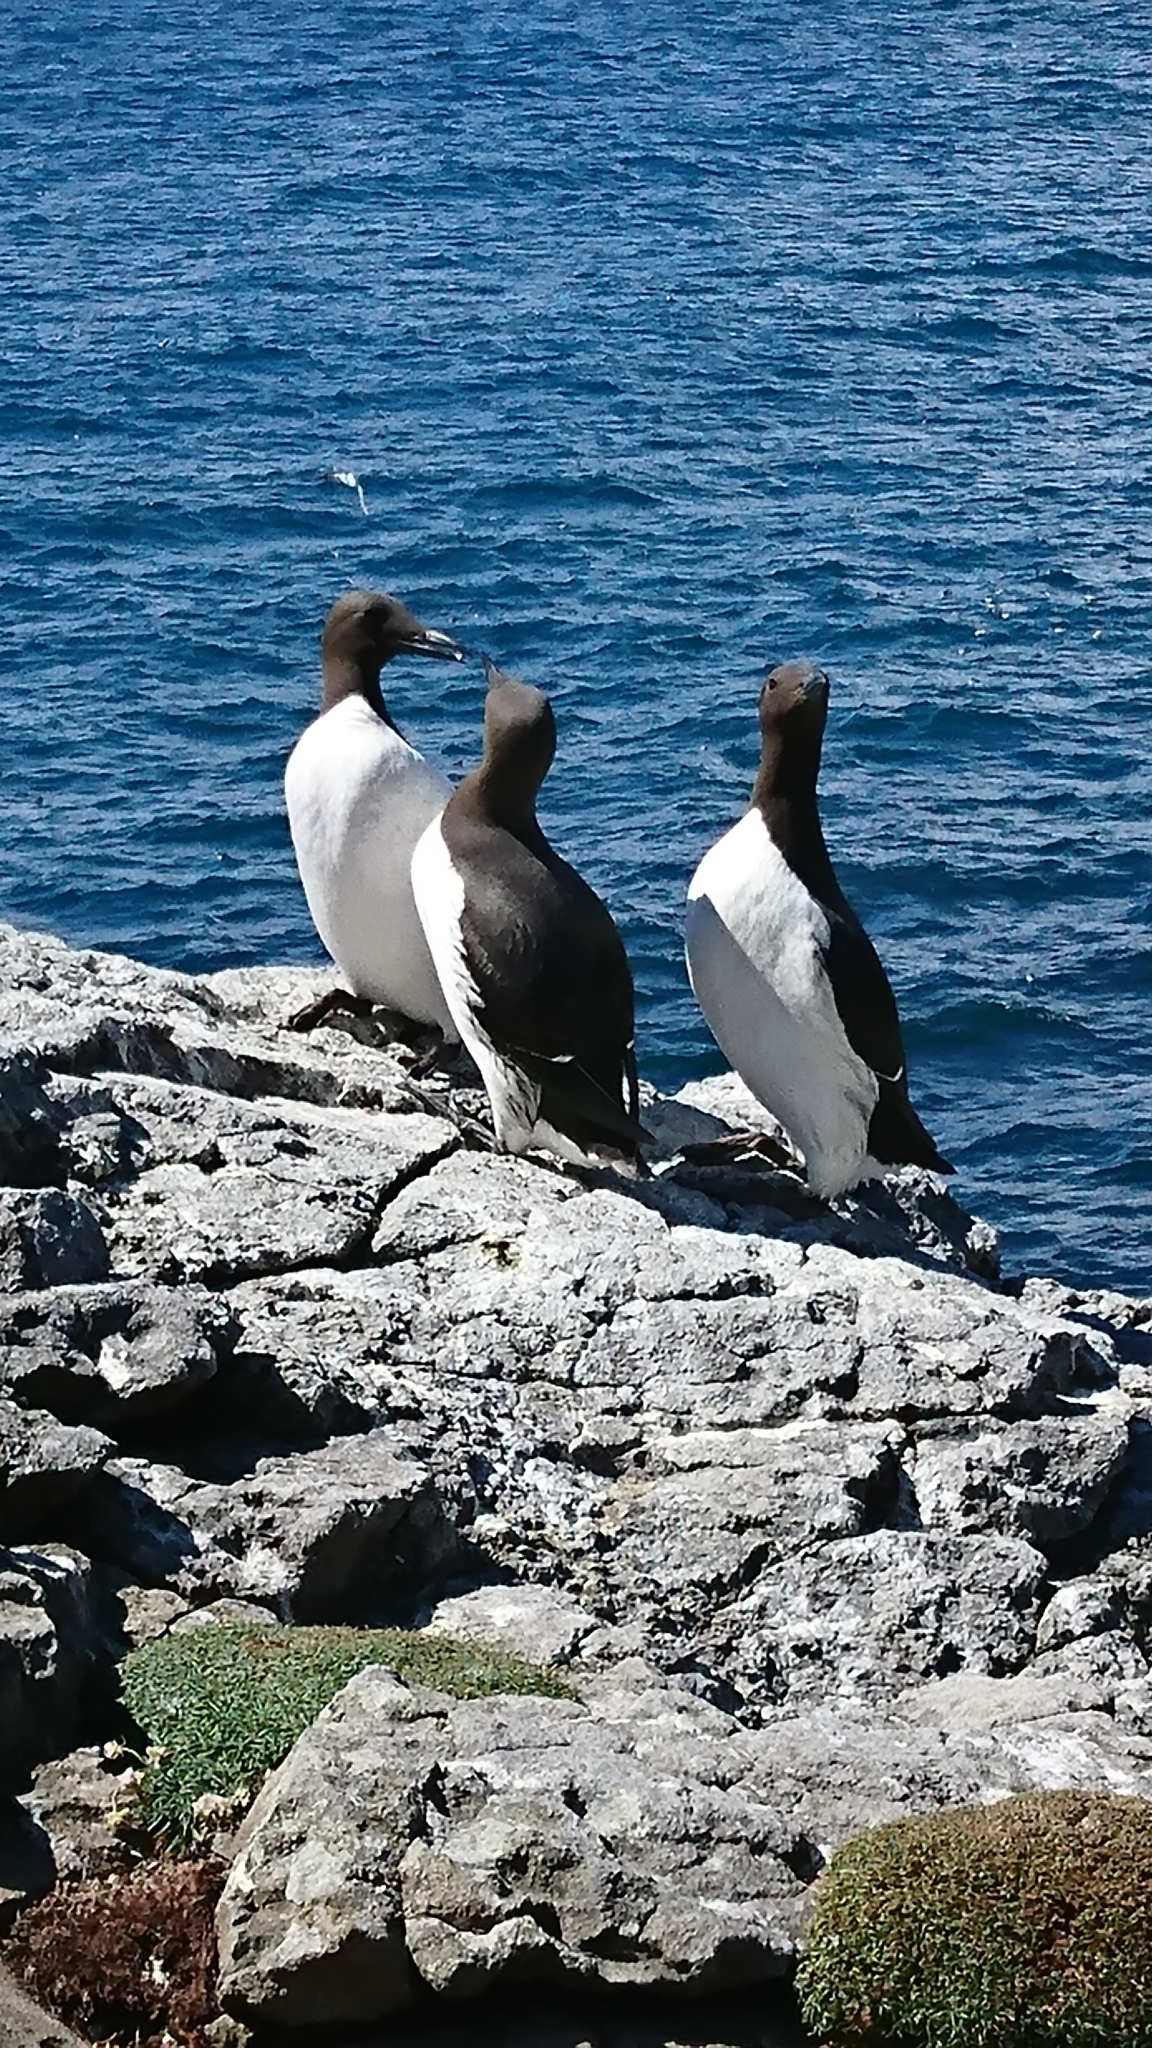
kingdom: Animalia
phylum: Chordata
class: Aves
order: Charadriiformes
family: Alcidae
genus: Uria
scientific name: Uria aalge
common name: Common murre
